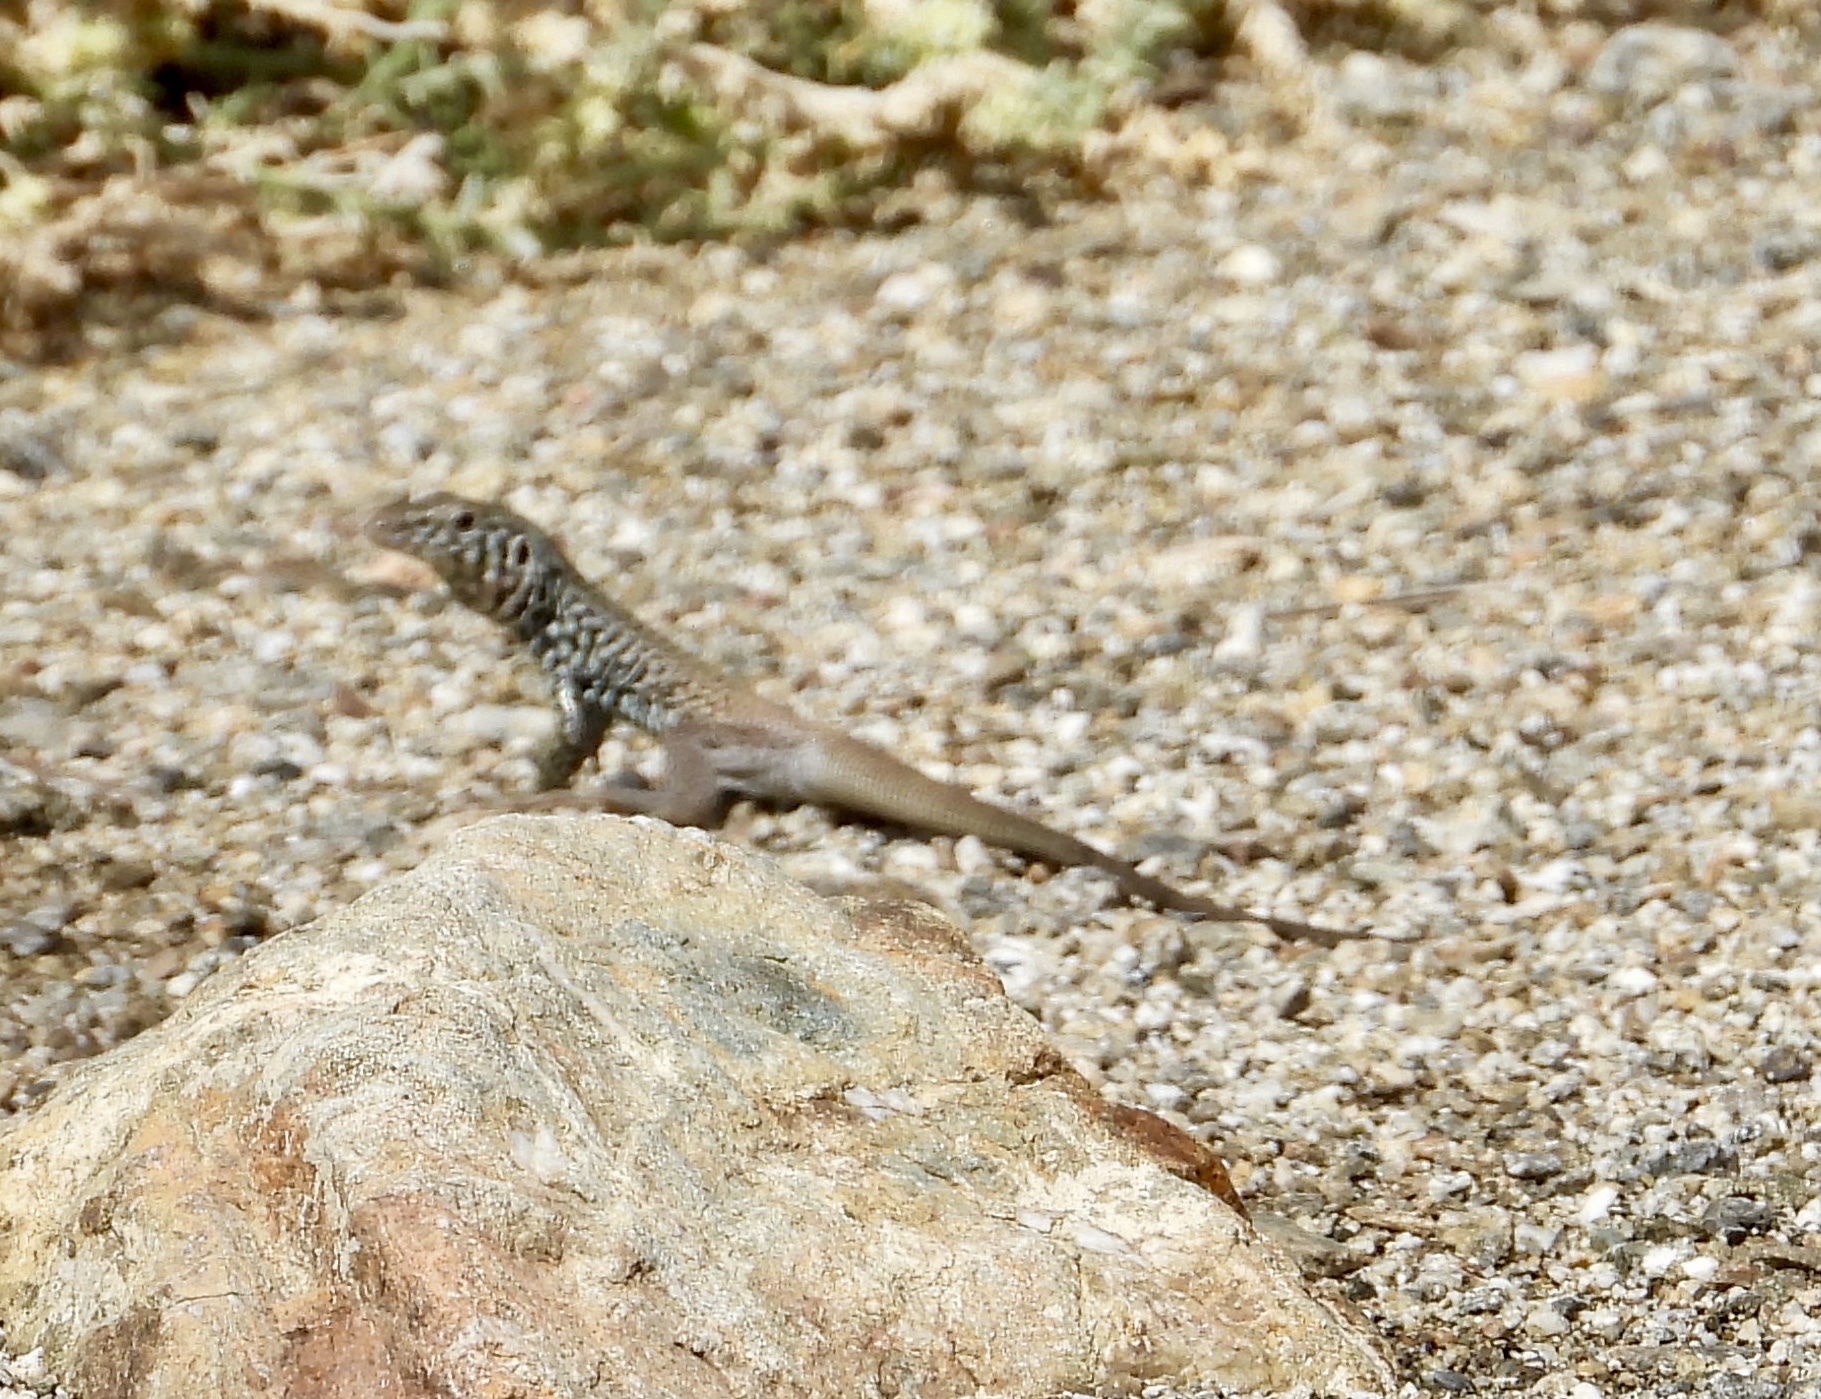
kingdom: Animalia
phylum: Chordata
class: Squamata
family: Teiidae
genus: Aspidoscelis
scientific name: Aspidoscelis tigris
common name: Tiger whiptail
